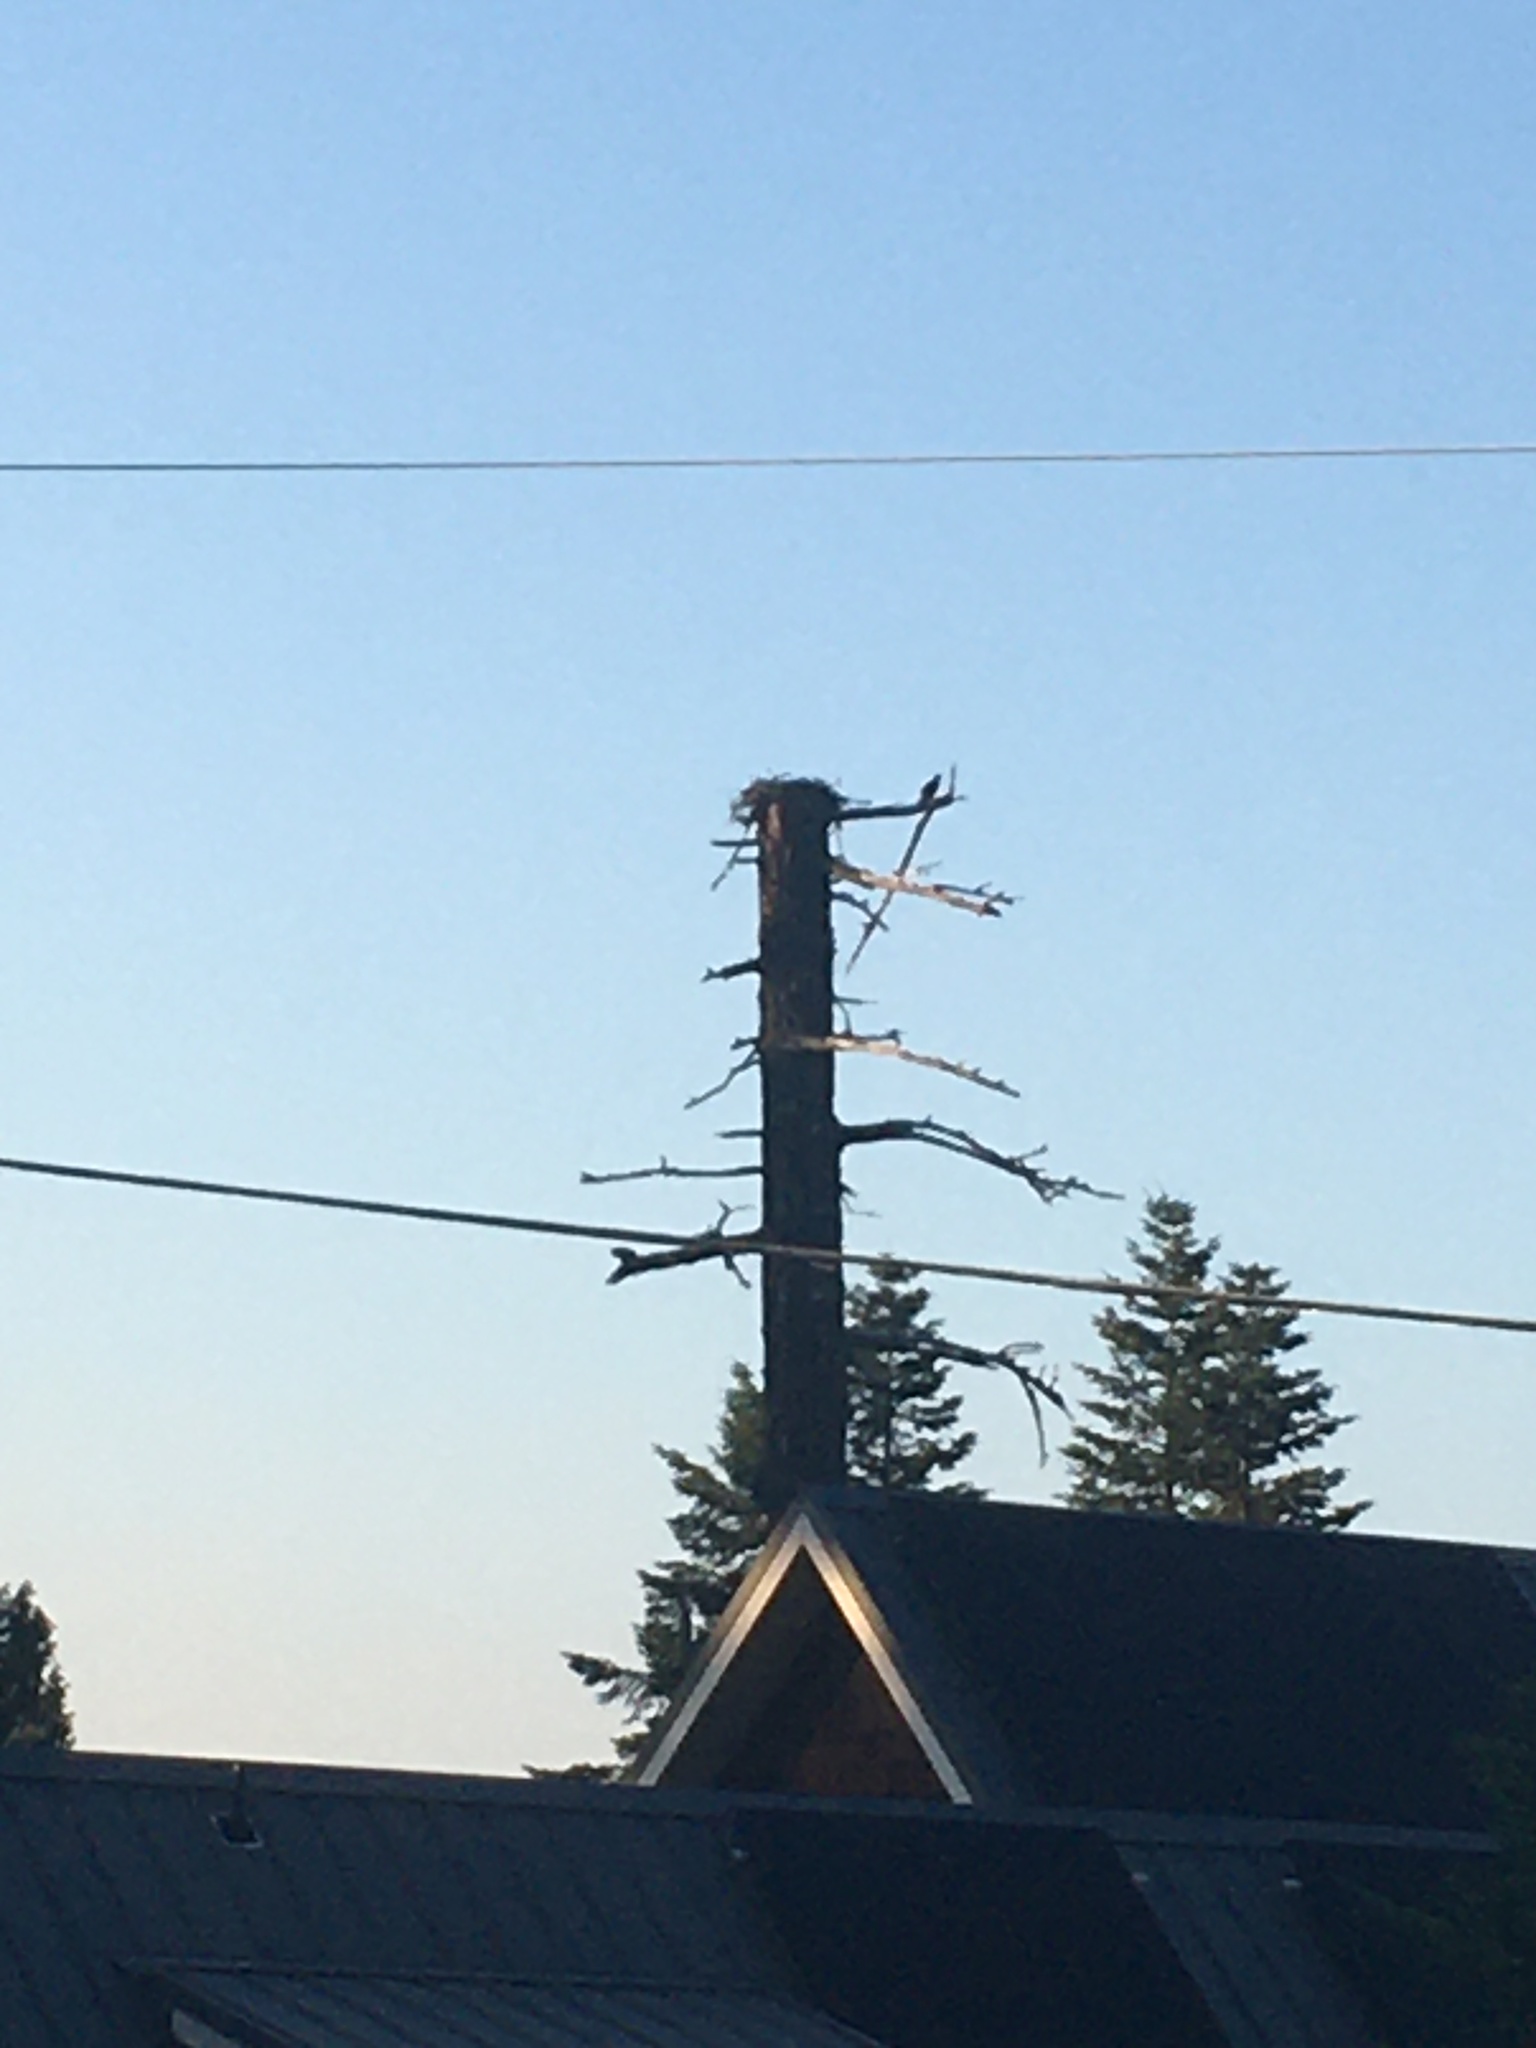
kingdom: Animalia
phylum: Chordata
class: Aves
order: Accipitriformes
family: Pandionidae
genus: Pandion
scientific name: Pandion haliaetus
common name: Osprey
